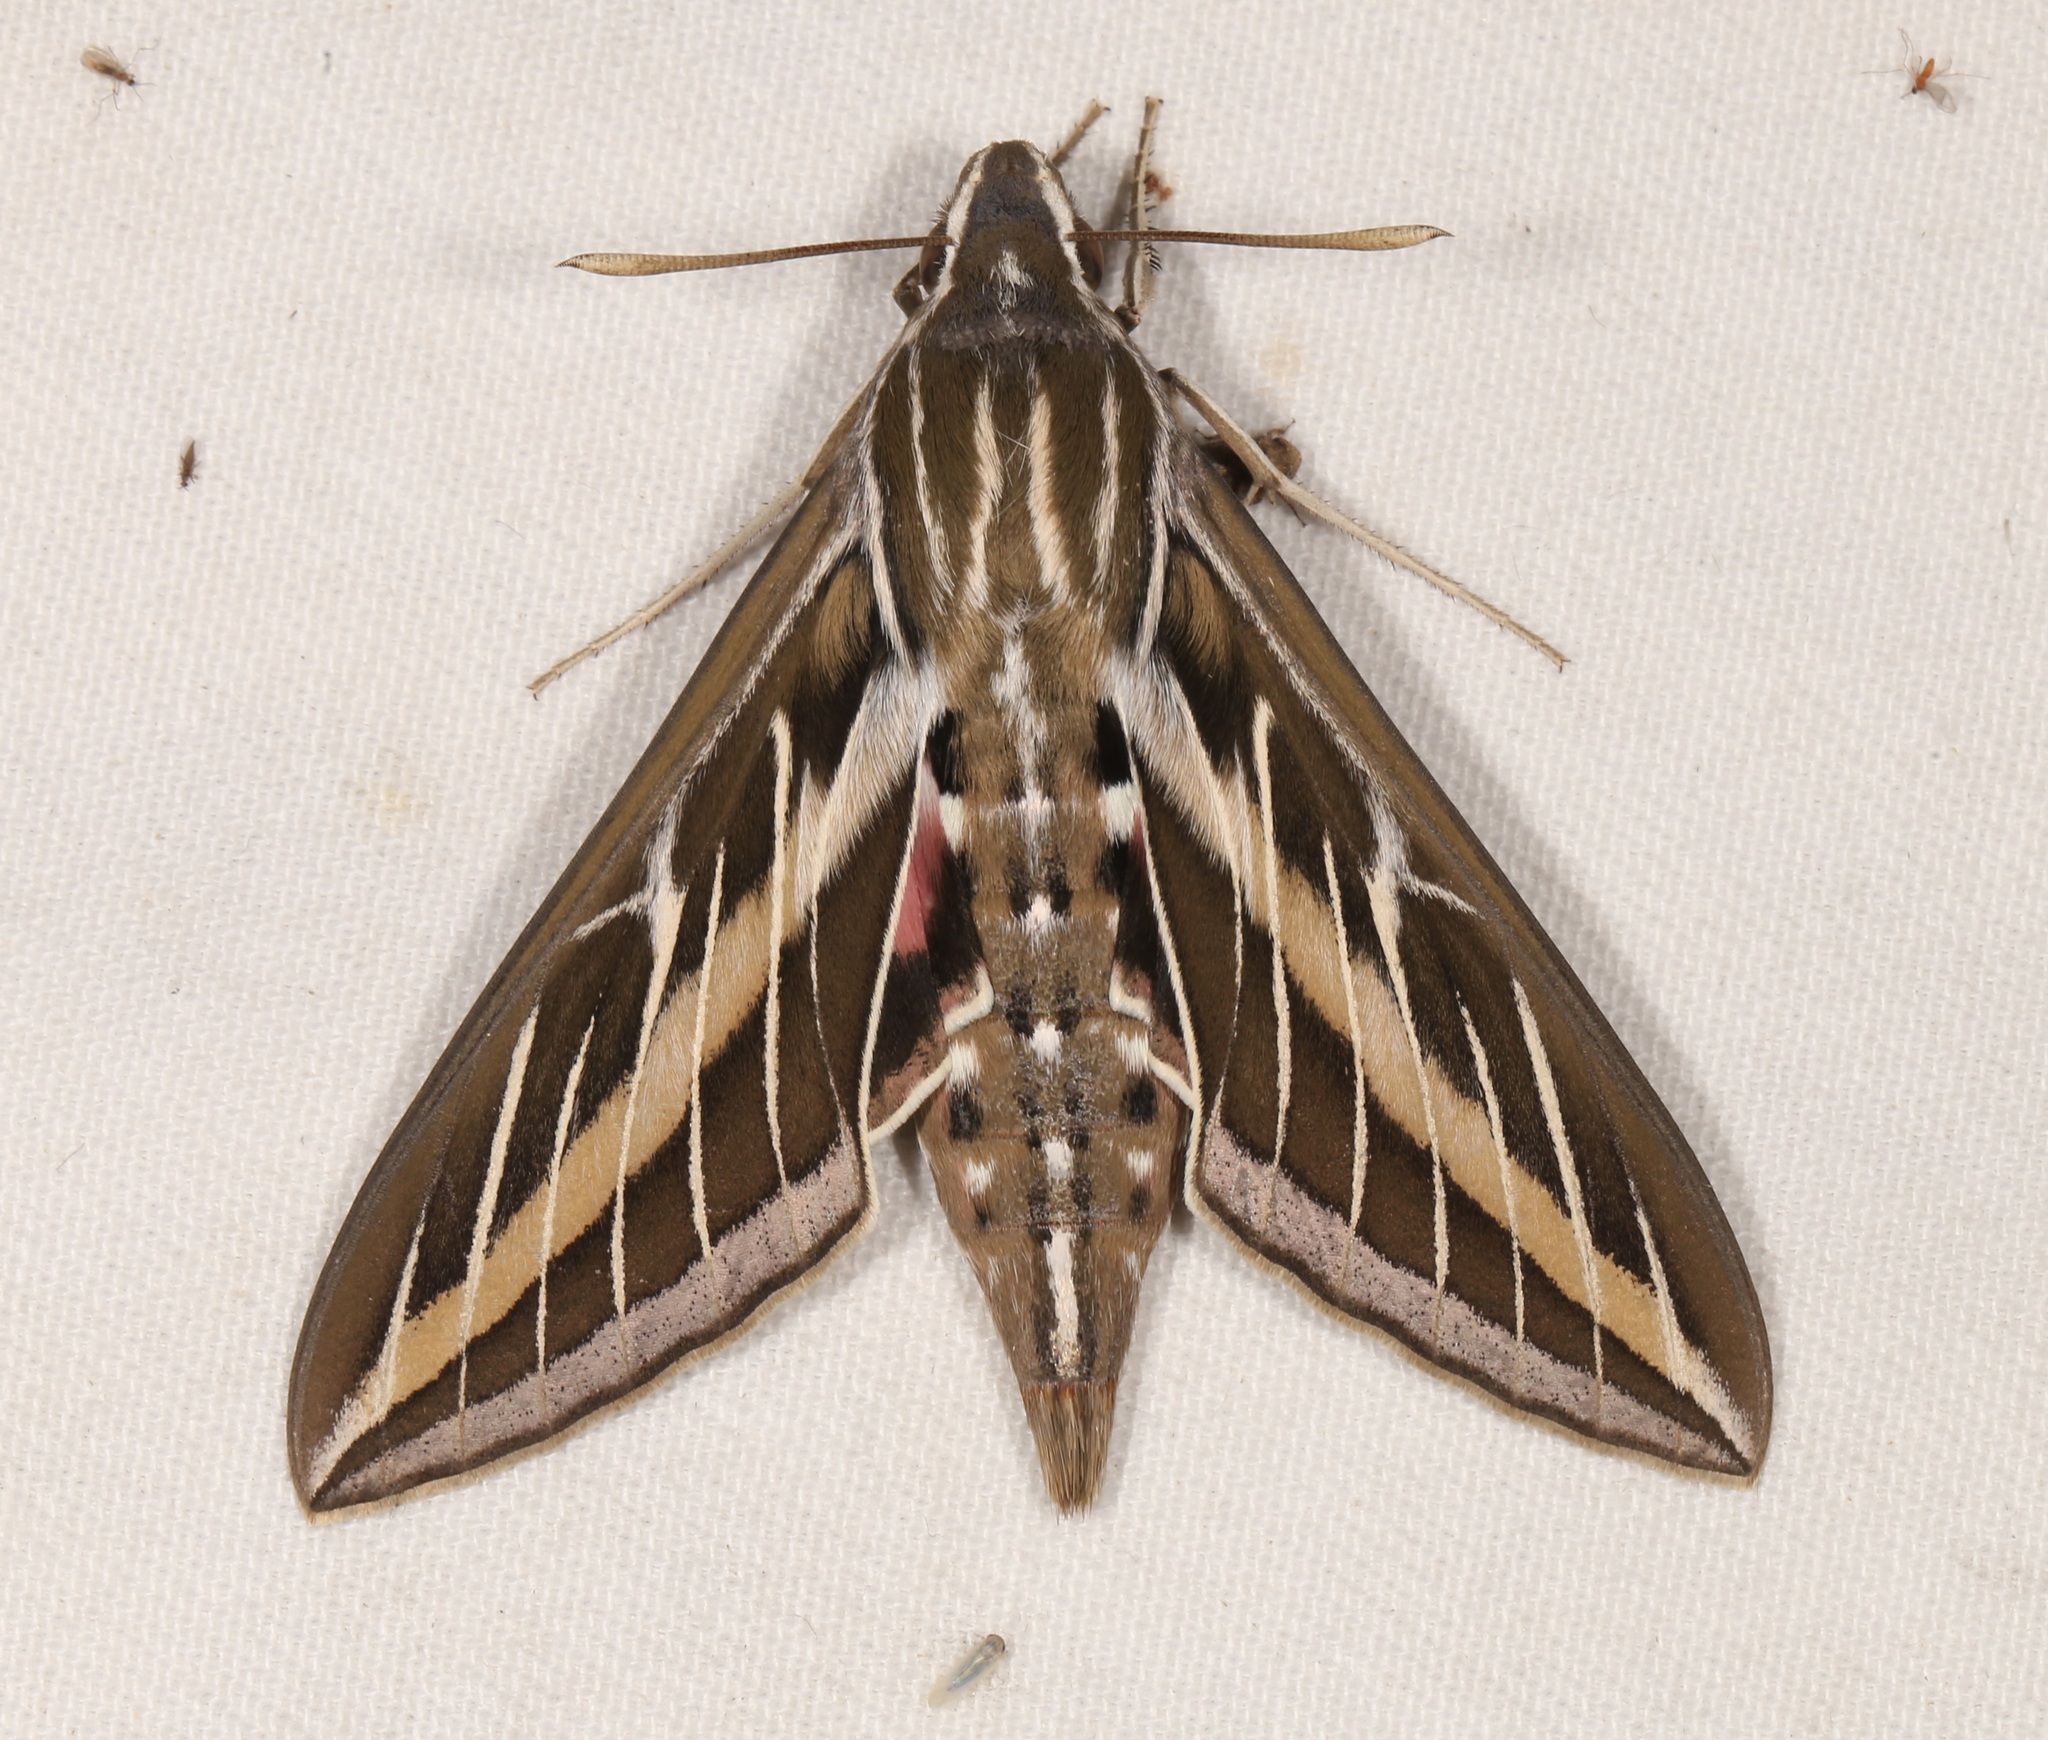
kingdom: Animalia
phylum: Arthropoda
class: Insecta
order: Lepidoptera
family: Sphingidae
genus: Hyles
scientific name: Hyles lineata
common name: White-lined sphinx
